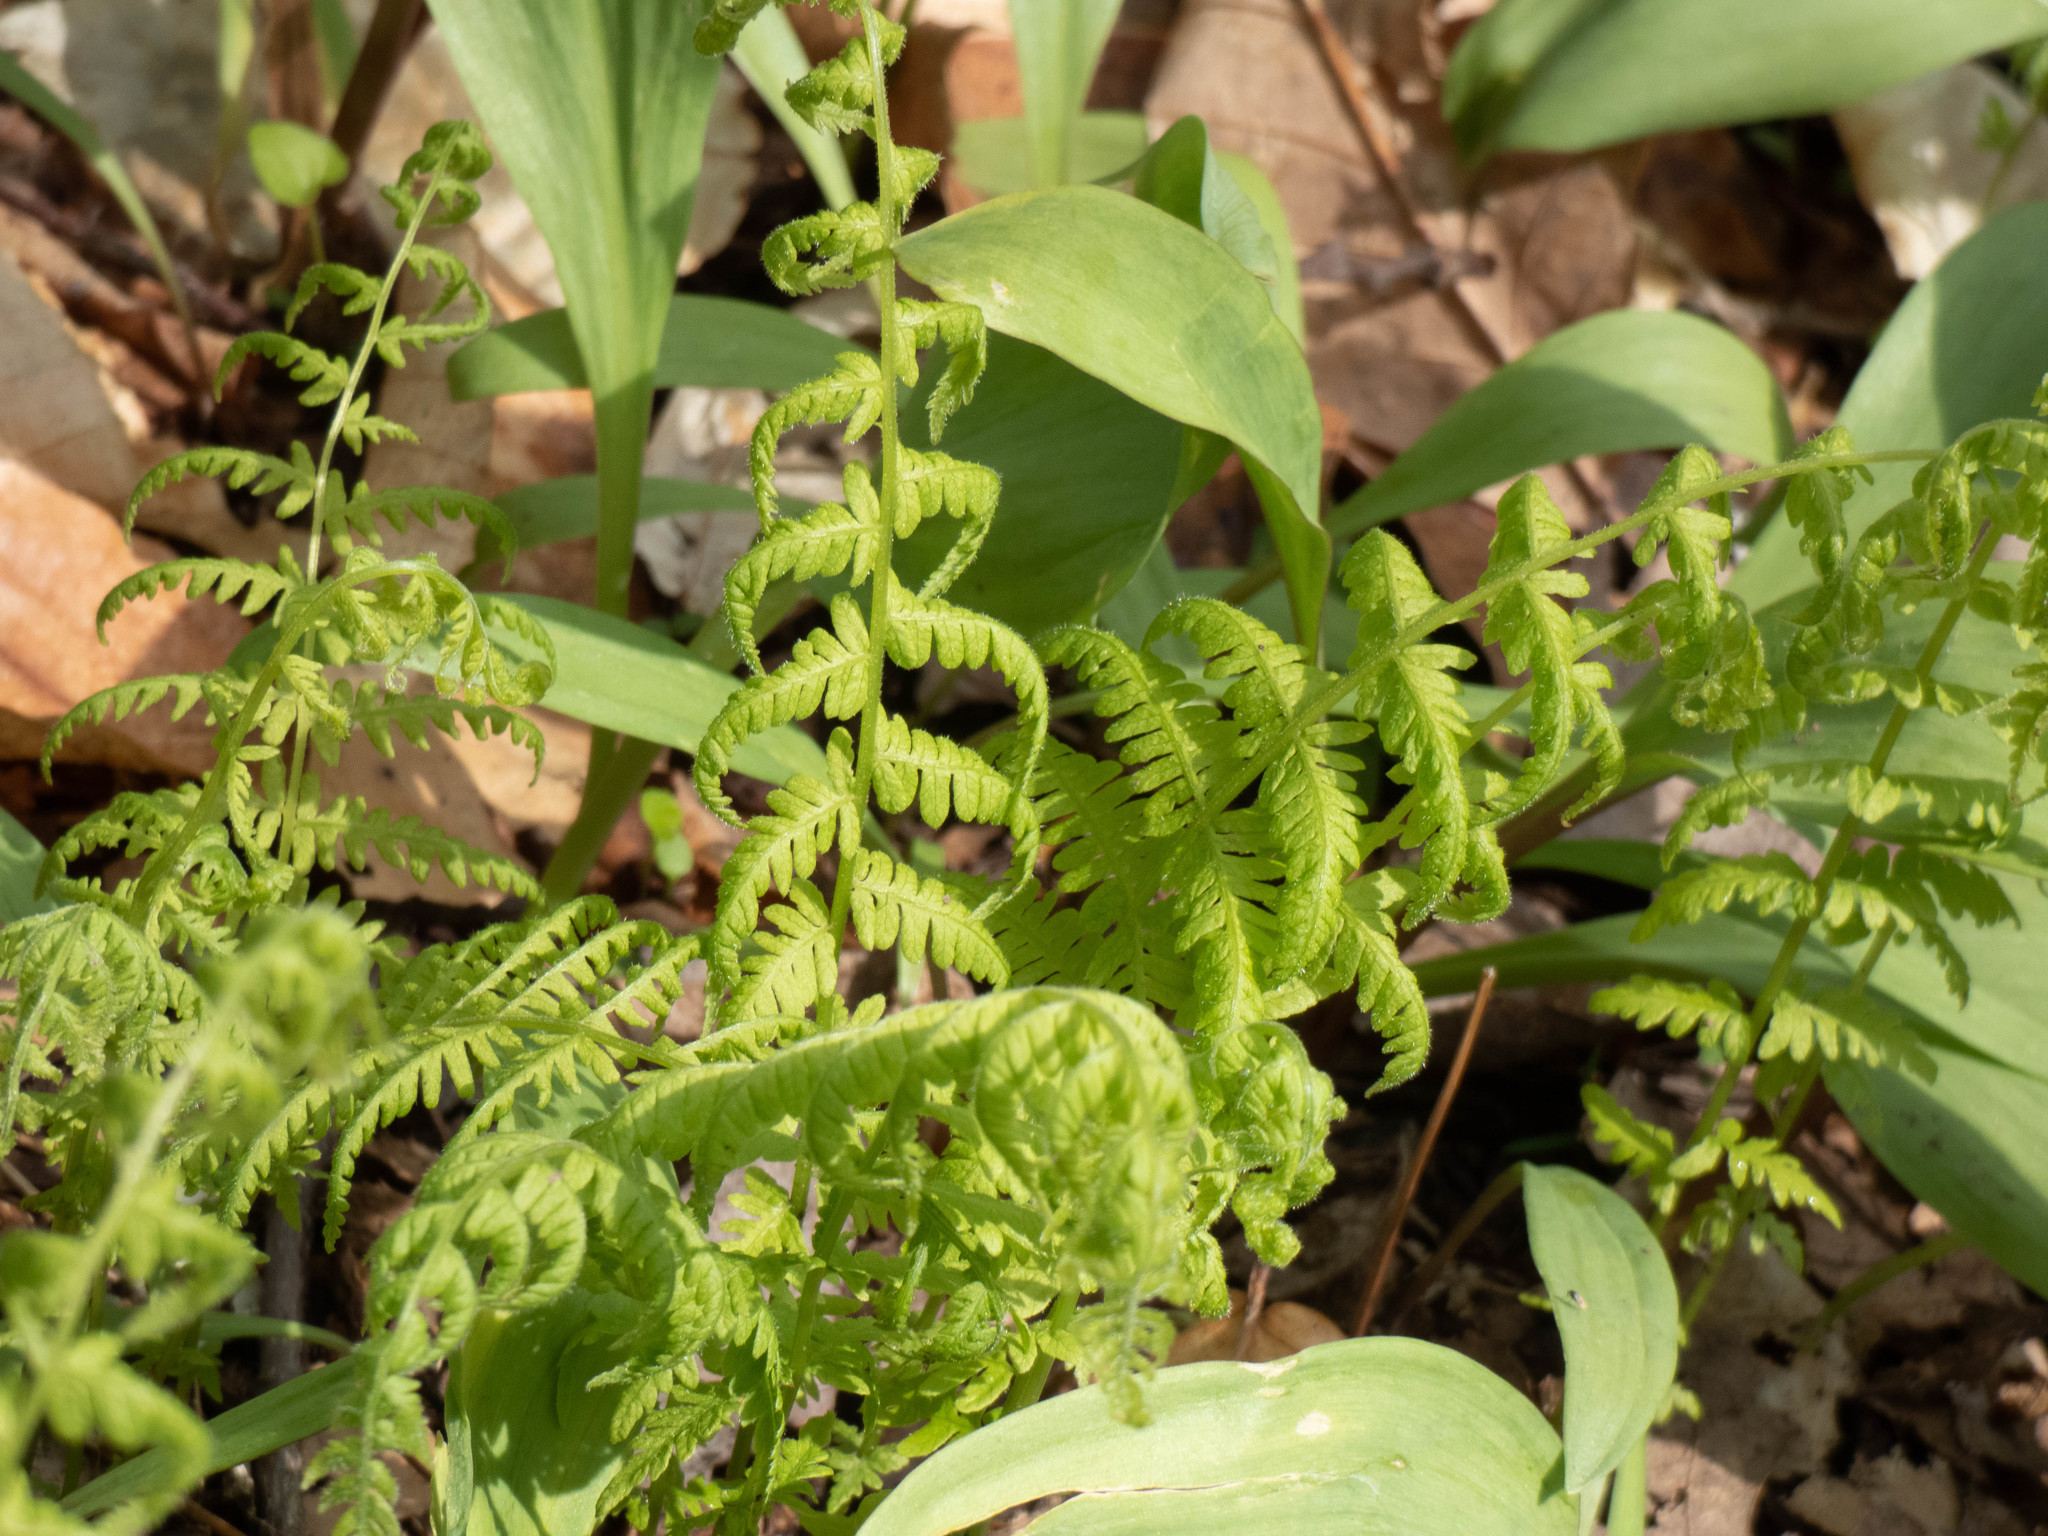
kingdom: Plantae
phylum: Tracheophyta
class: Polypodiopsida
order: Polypodiales
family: Thelypteridaceae
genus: Amauropelta
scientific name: Amauropelta noveboracensis
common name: New york fern
